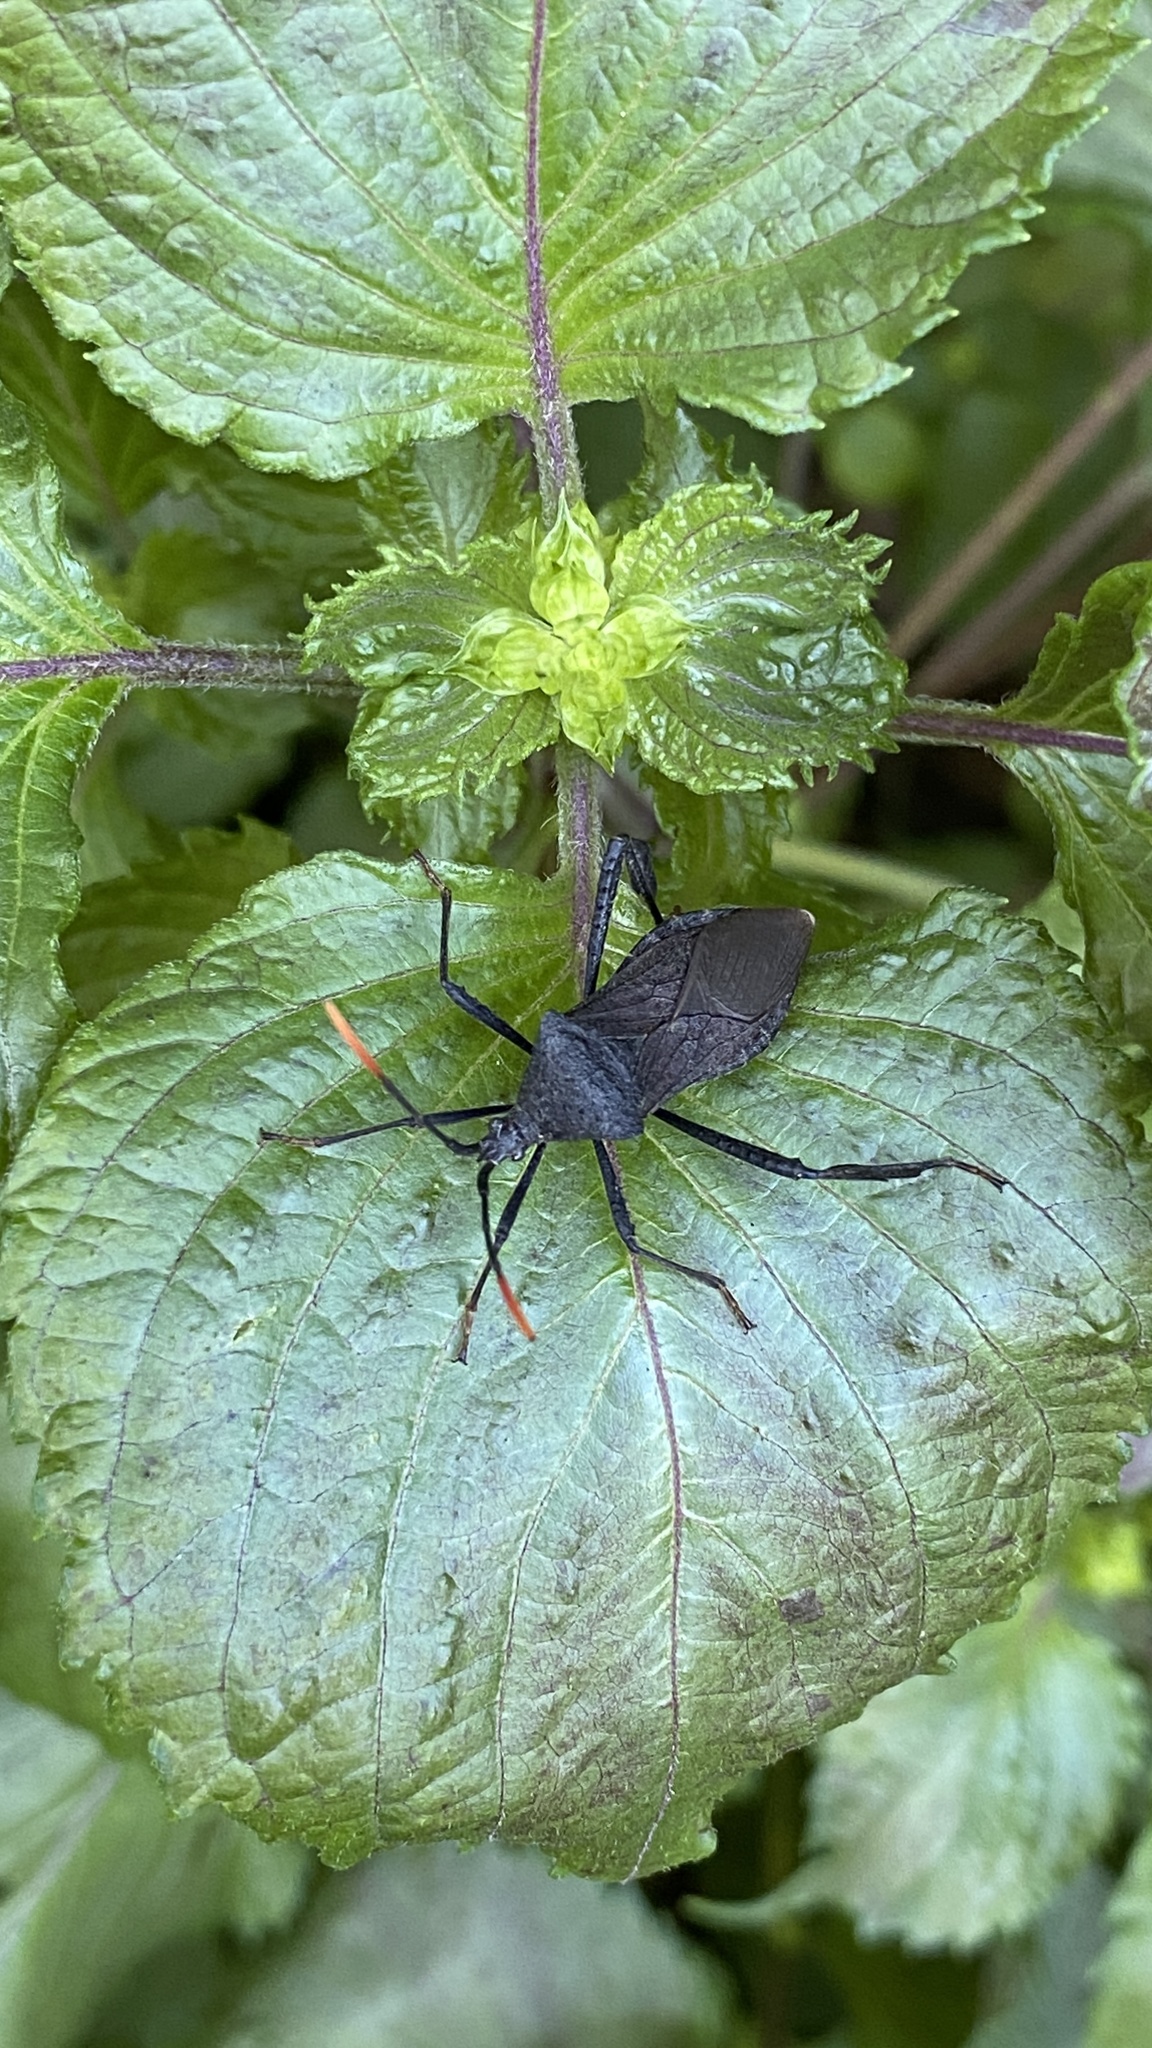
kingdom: Animalia
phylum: Arthropoda
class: Insecta
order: Hemiptera
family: Coreidae
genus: Acanthocephala
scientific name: Acanthocephala terminalis
